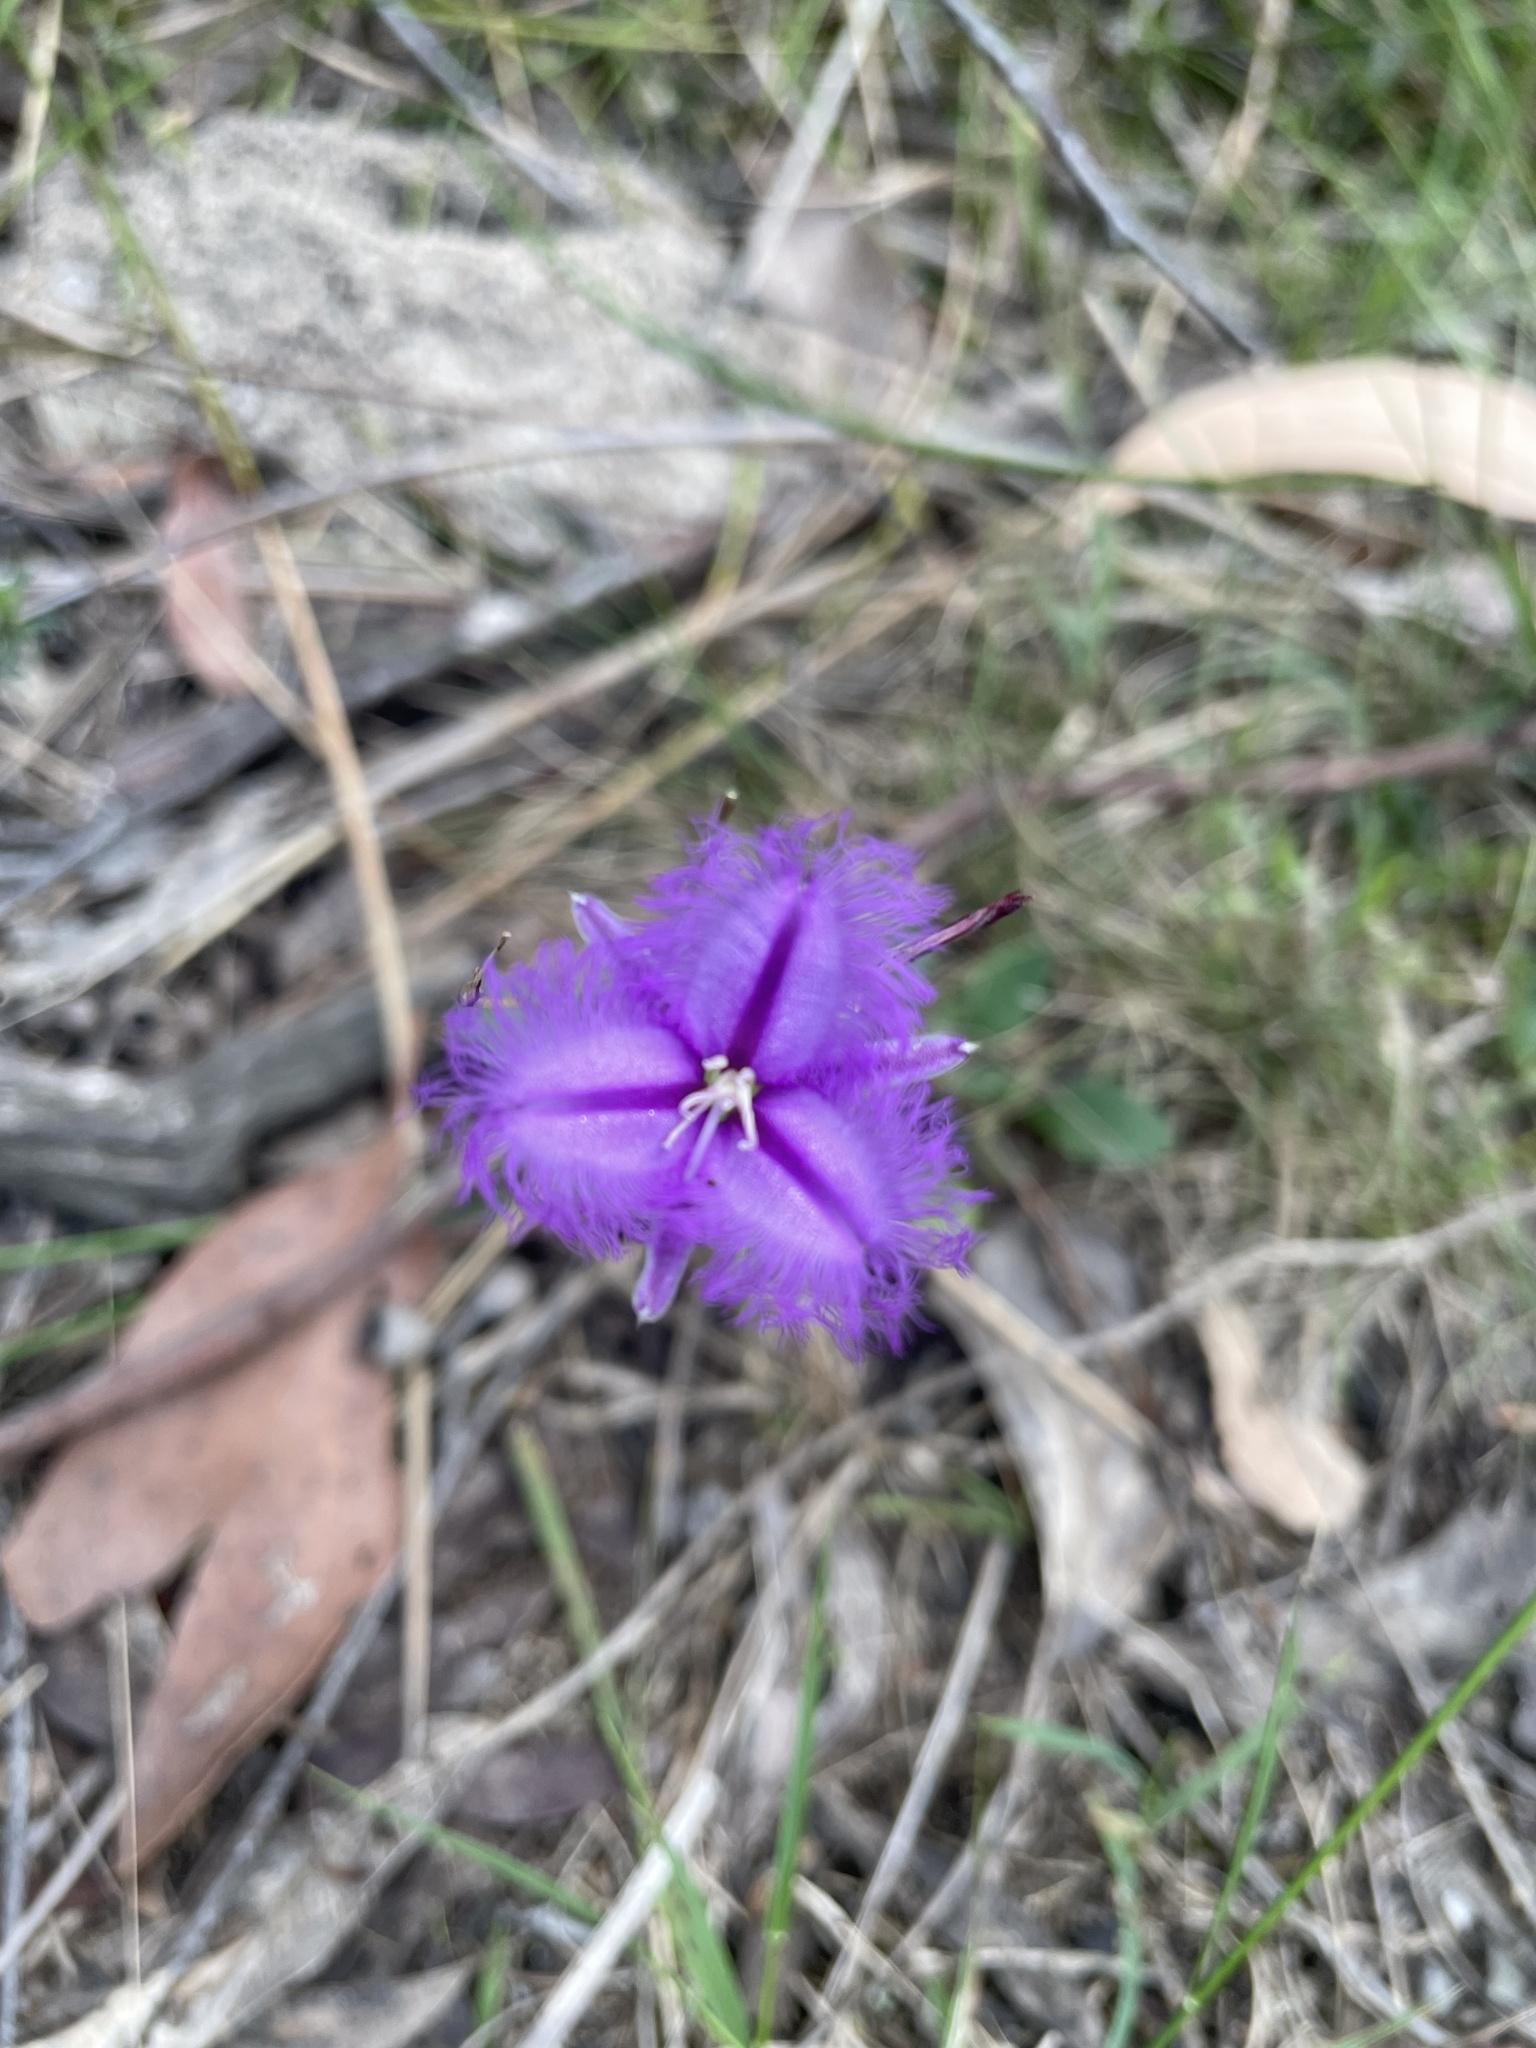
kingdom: Plantae
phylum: Tracheophyta
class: Liliopsida
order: Asparagales
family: Asparagaceae
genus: Thysanotus
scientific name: Thysanotus tuberosus
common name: Common fringed-lily
